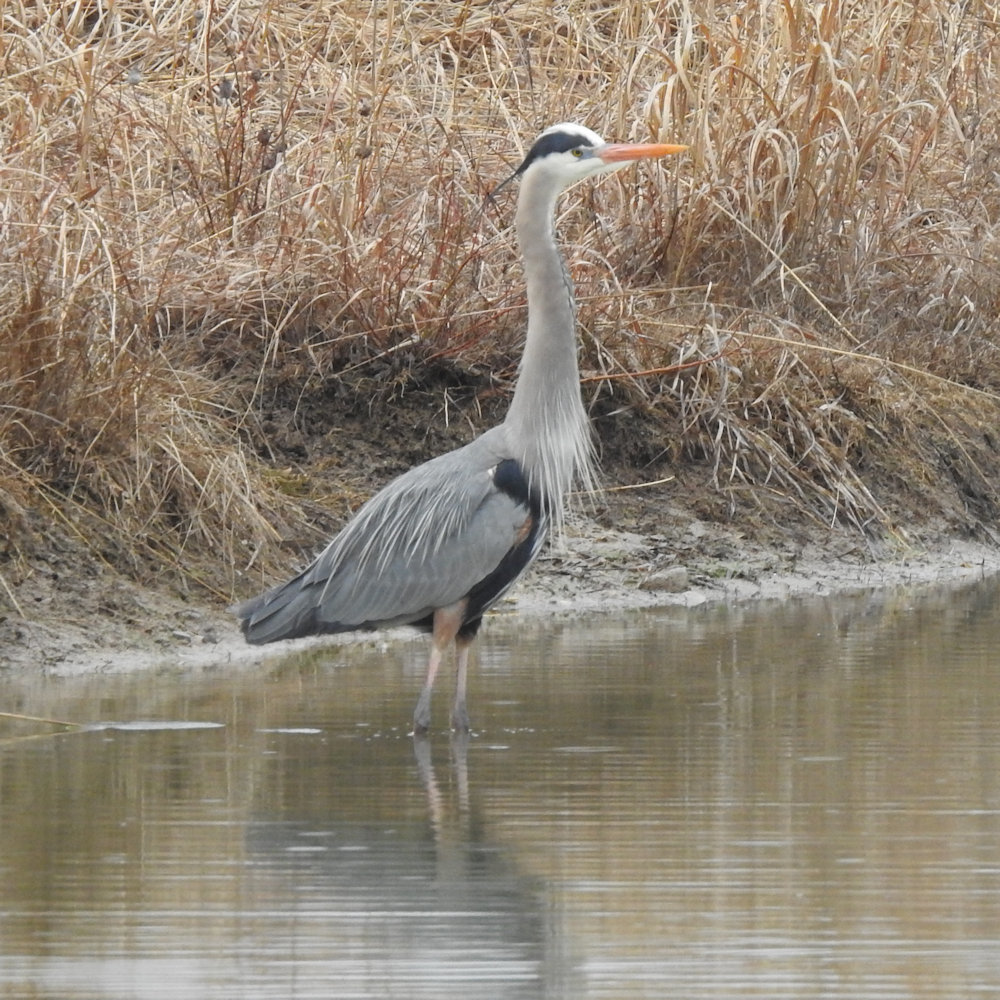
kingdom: Animalia
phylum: Chordata
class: Aves
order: Pelecaniformes
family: Ardeidae
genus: Ardea
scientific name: Ardea herodias
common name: Great blue heron
